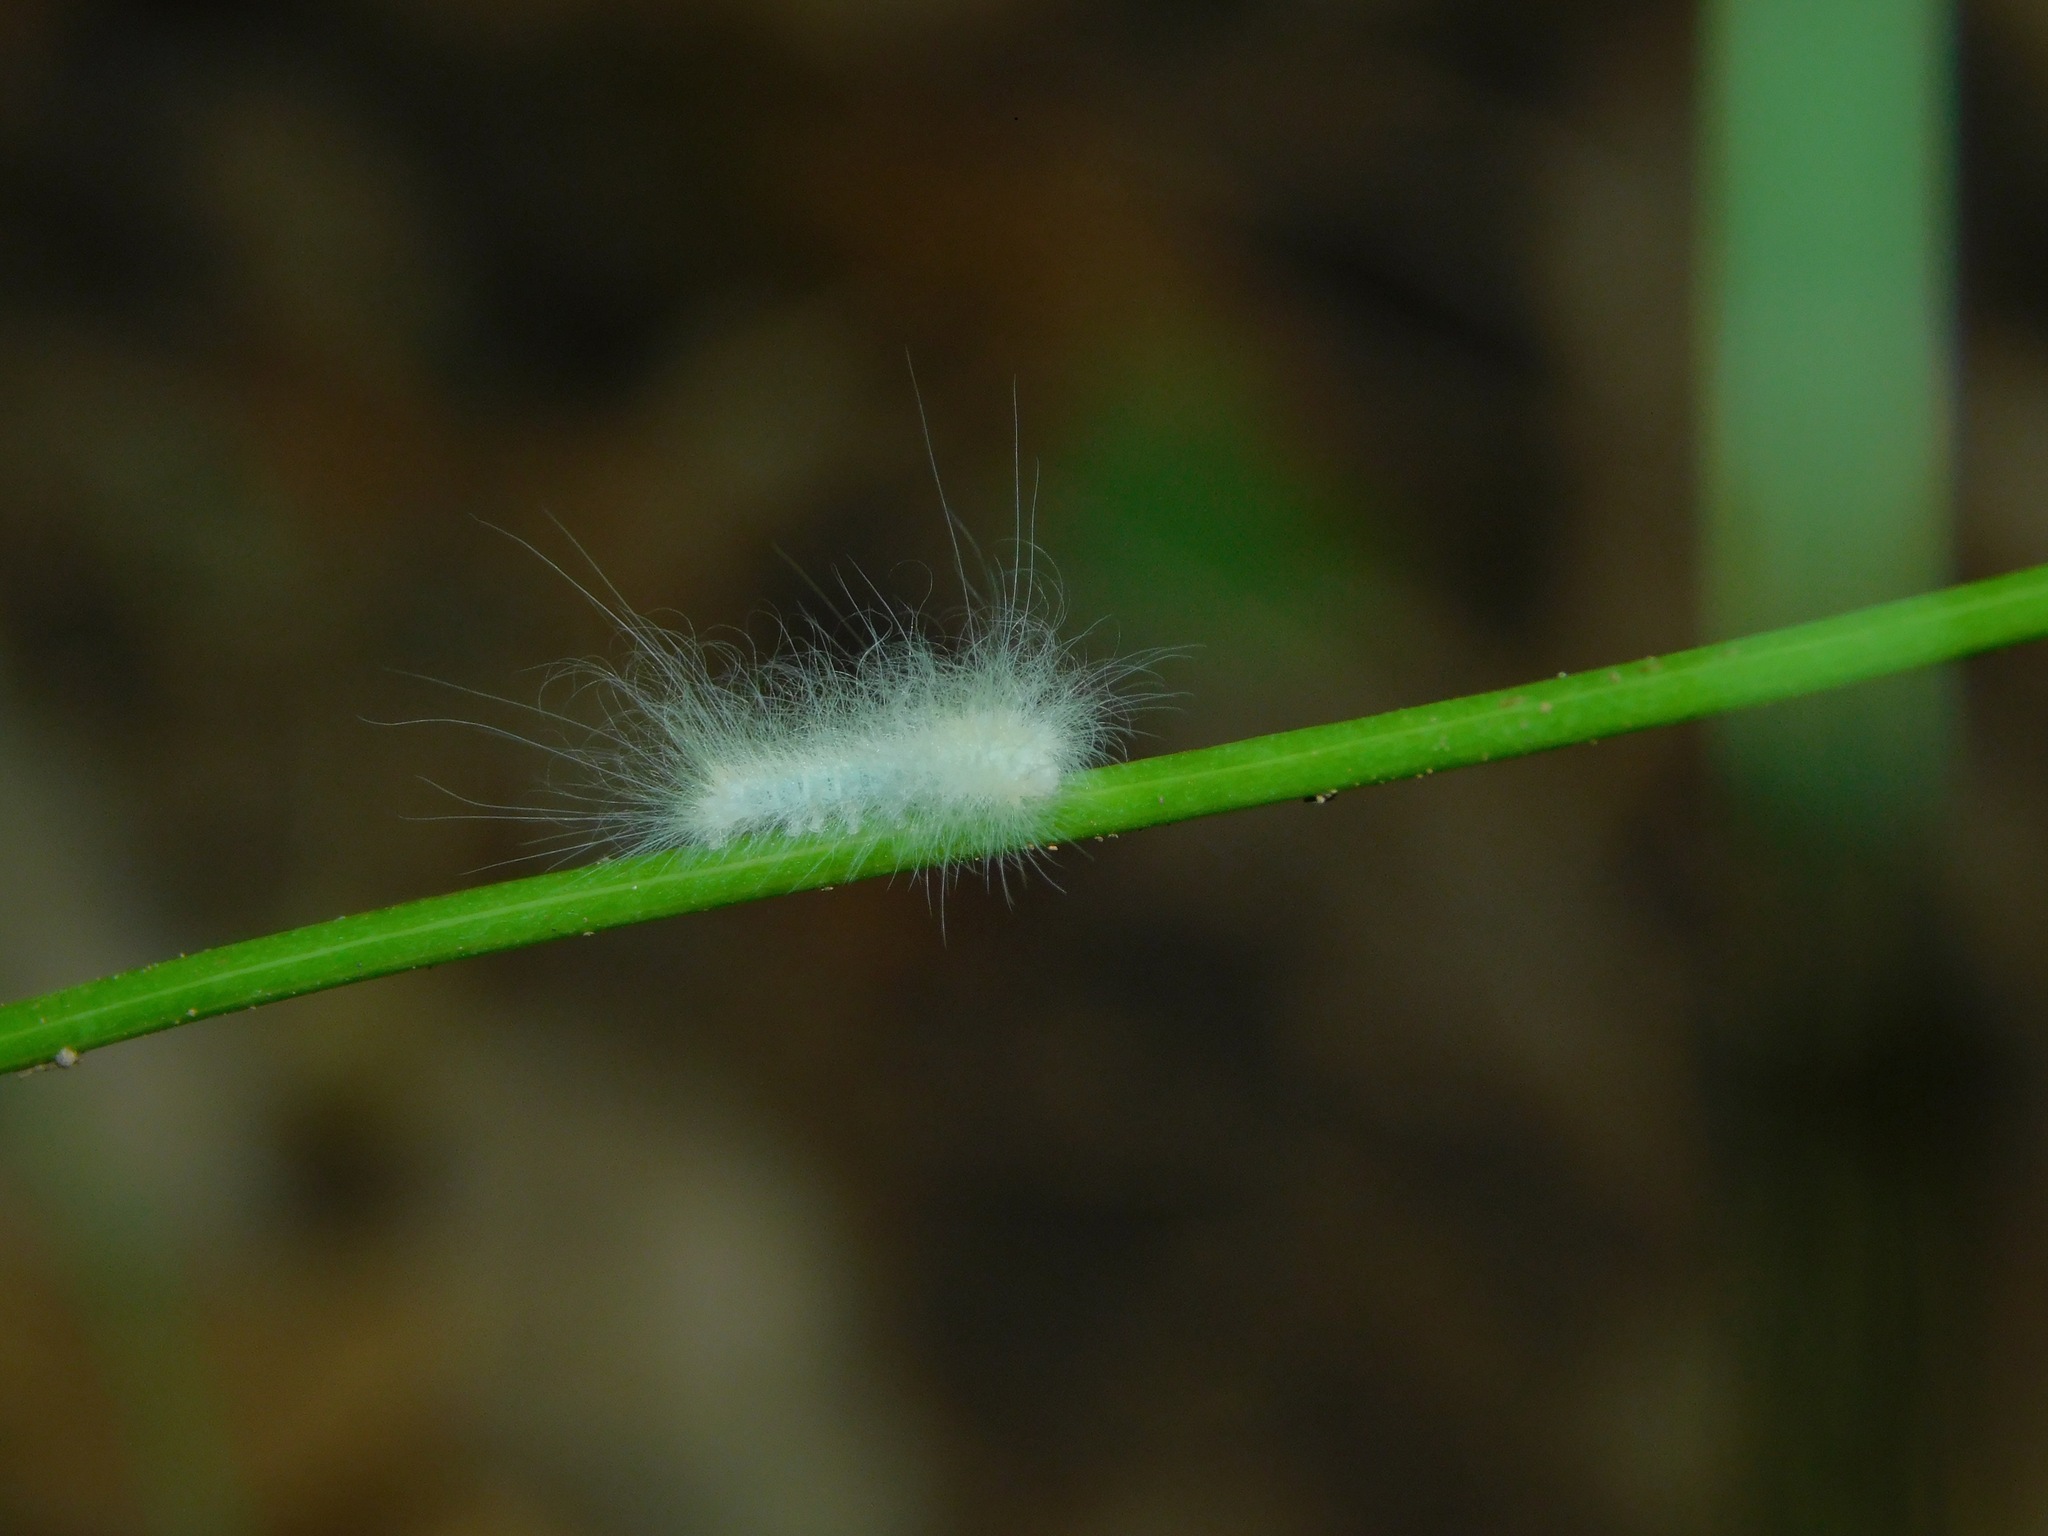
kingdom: Animalia
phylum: Arthropoda
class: Insecta
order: Lepidoptera
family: Apatelodidae
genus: Hygrochroa
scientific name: Hygrochroa Apatelodes torrefacta
